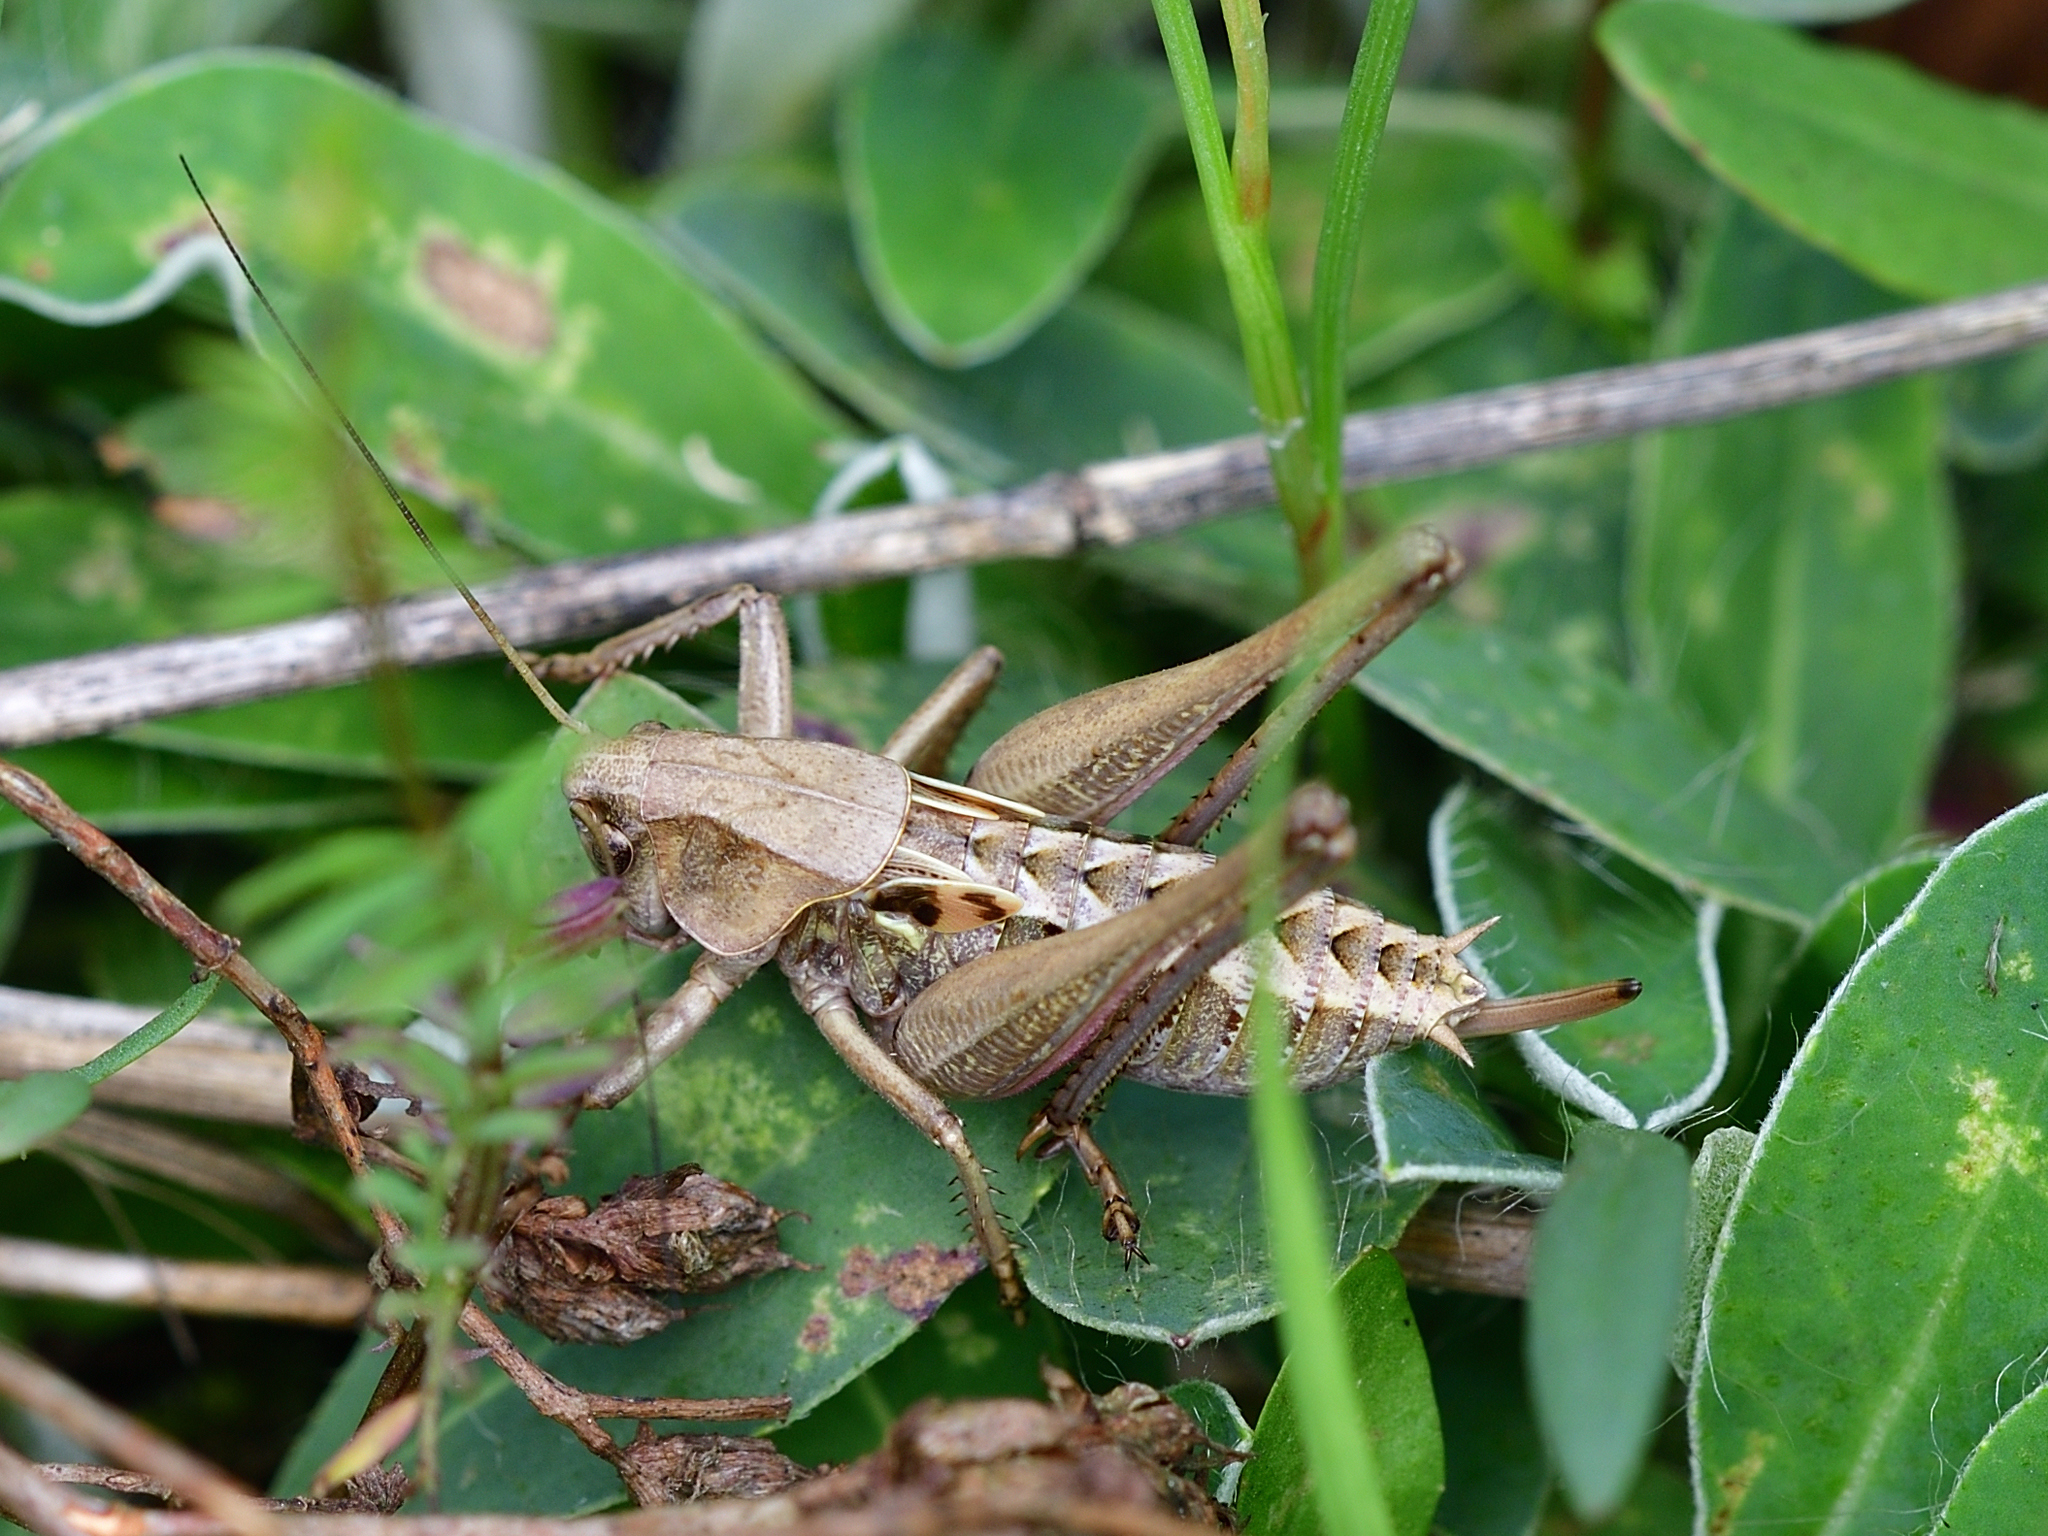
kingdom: Animalia
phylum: Arthropoda
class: Insecta
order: Orthoptera
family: Tettigoniidae
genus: Decticus
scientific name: Decticus verrucivorus
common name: Wart-biter
